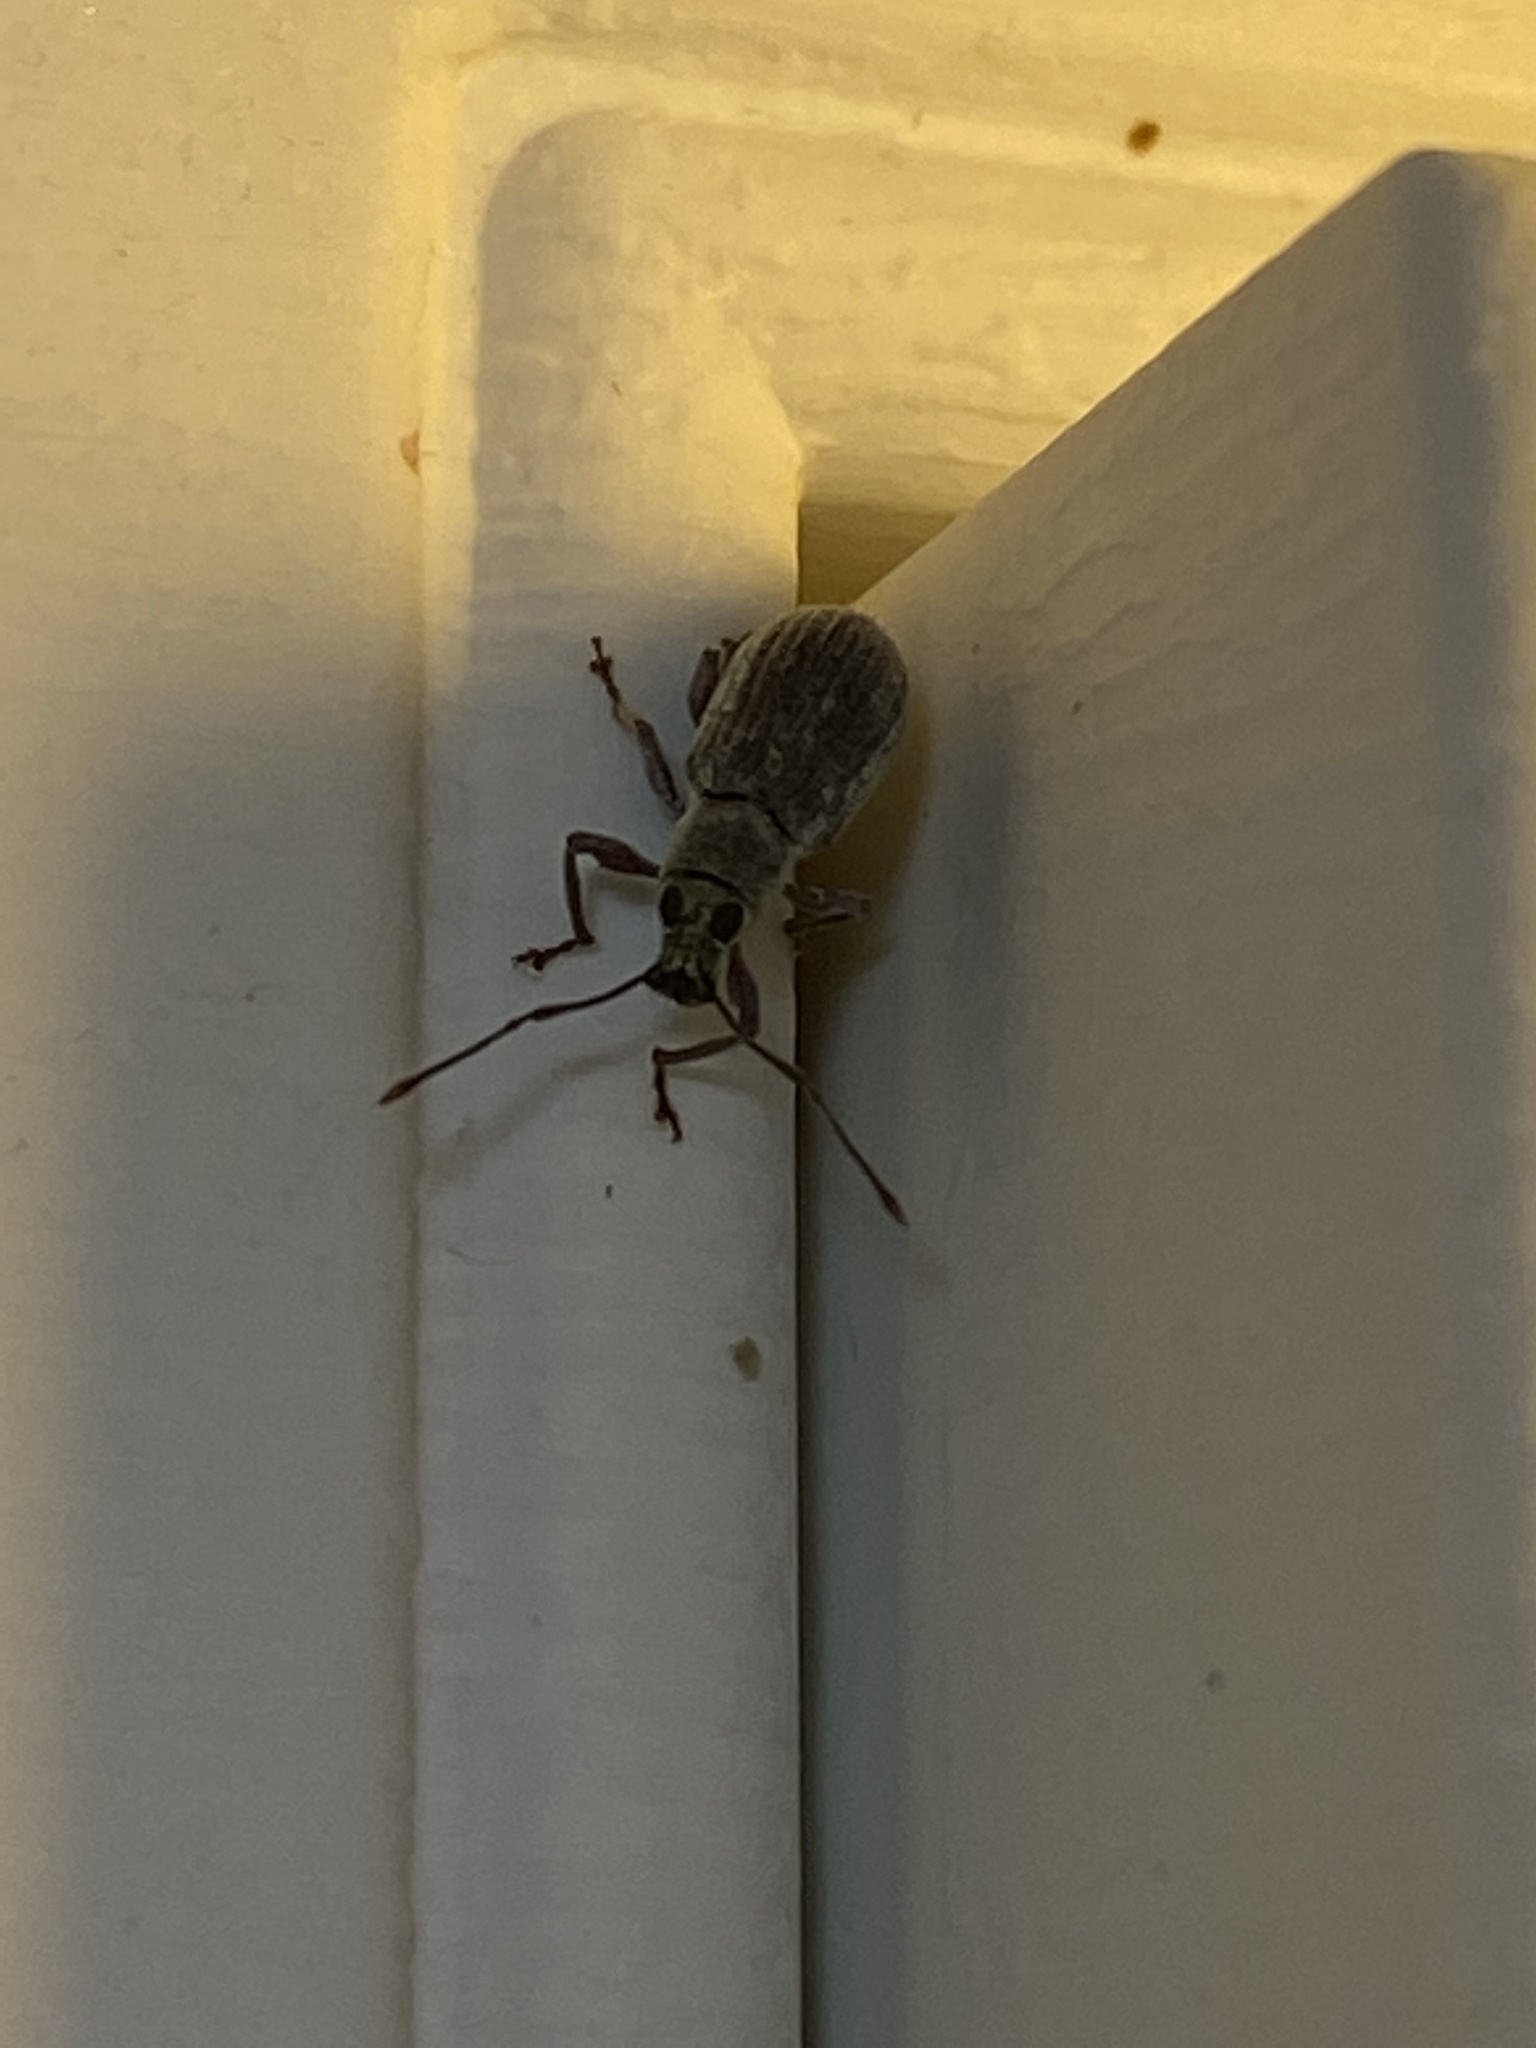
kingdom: Animalia
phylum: Arthropoda
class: Insecta
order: Coleoptera
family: Curculionidae
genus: Cyrtepistomus
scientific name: Cyrtepistomus castaneus
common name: Weevil
